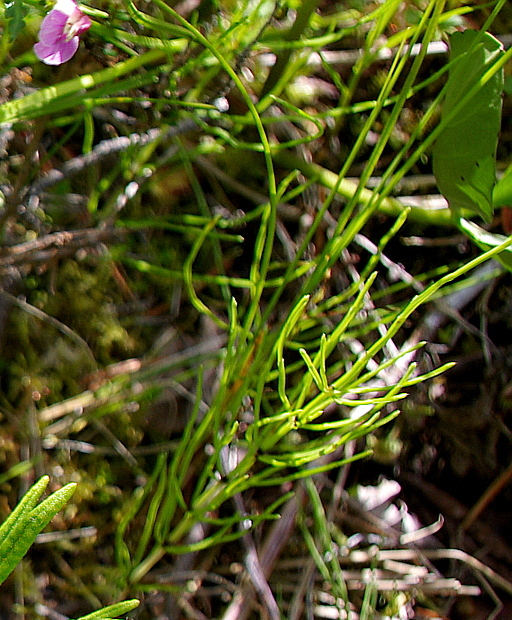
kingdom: Plantae
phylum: Tracheophyta
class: Polypodiopsida
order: Equisetales
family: Equisetaceae
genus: Equisetum
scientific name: Equisetum arvense
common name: Field horsetail
